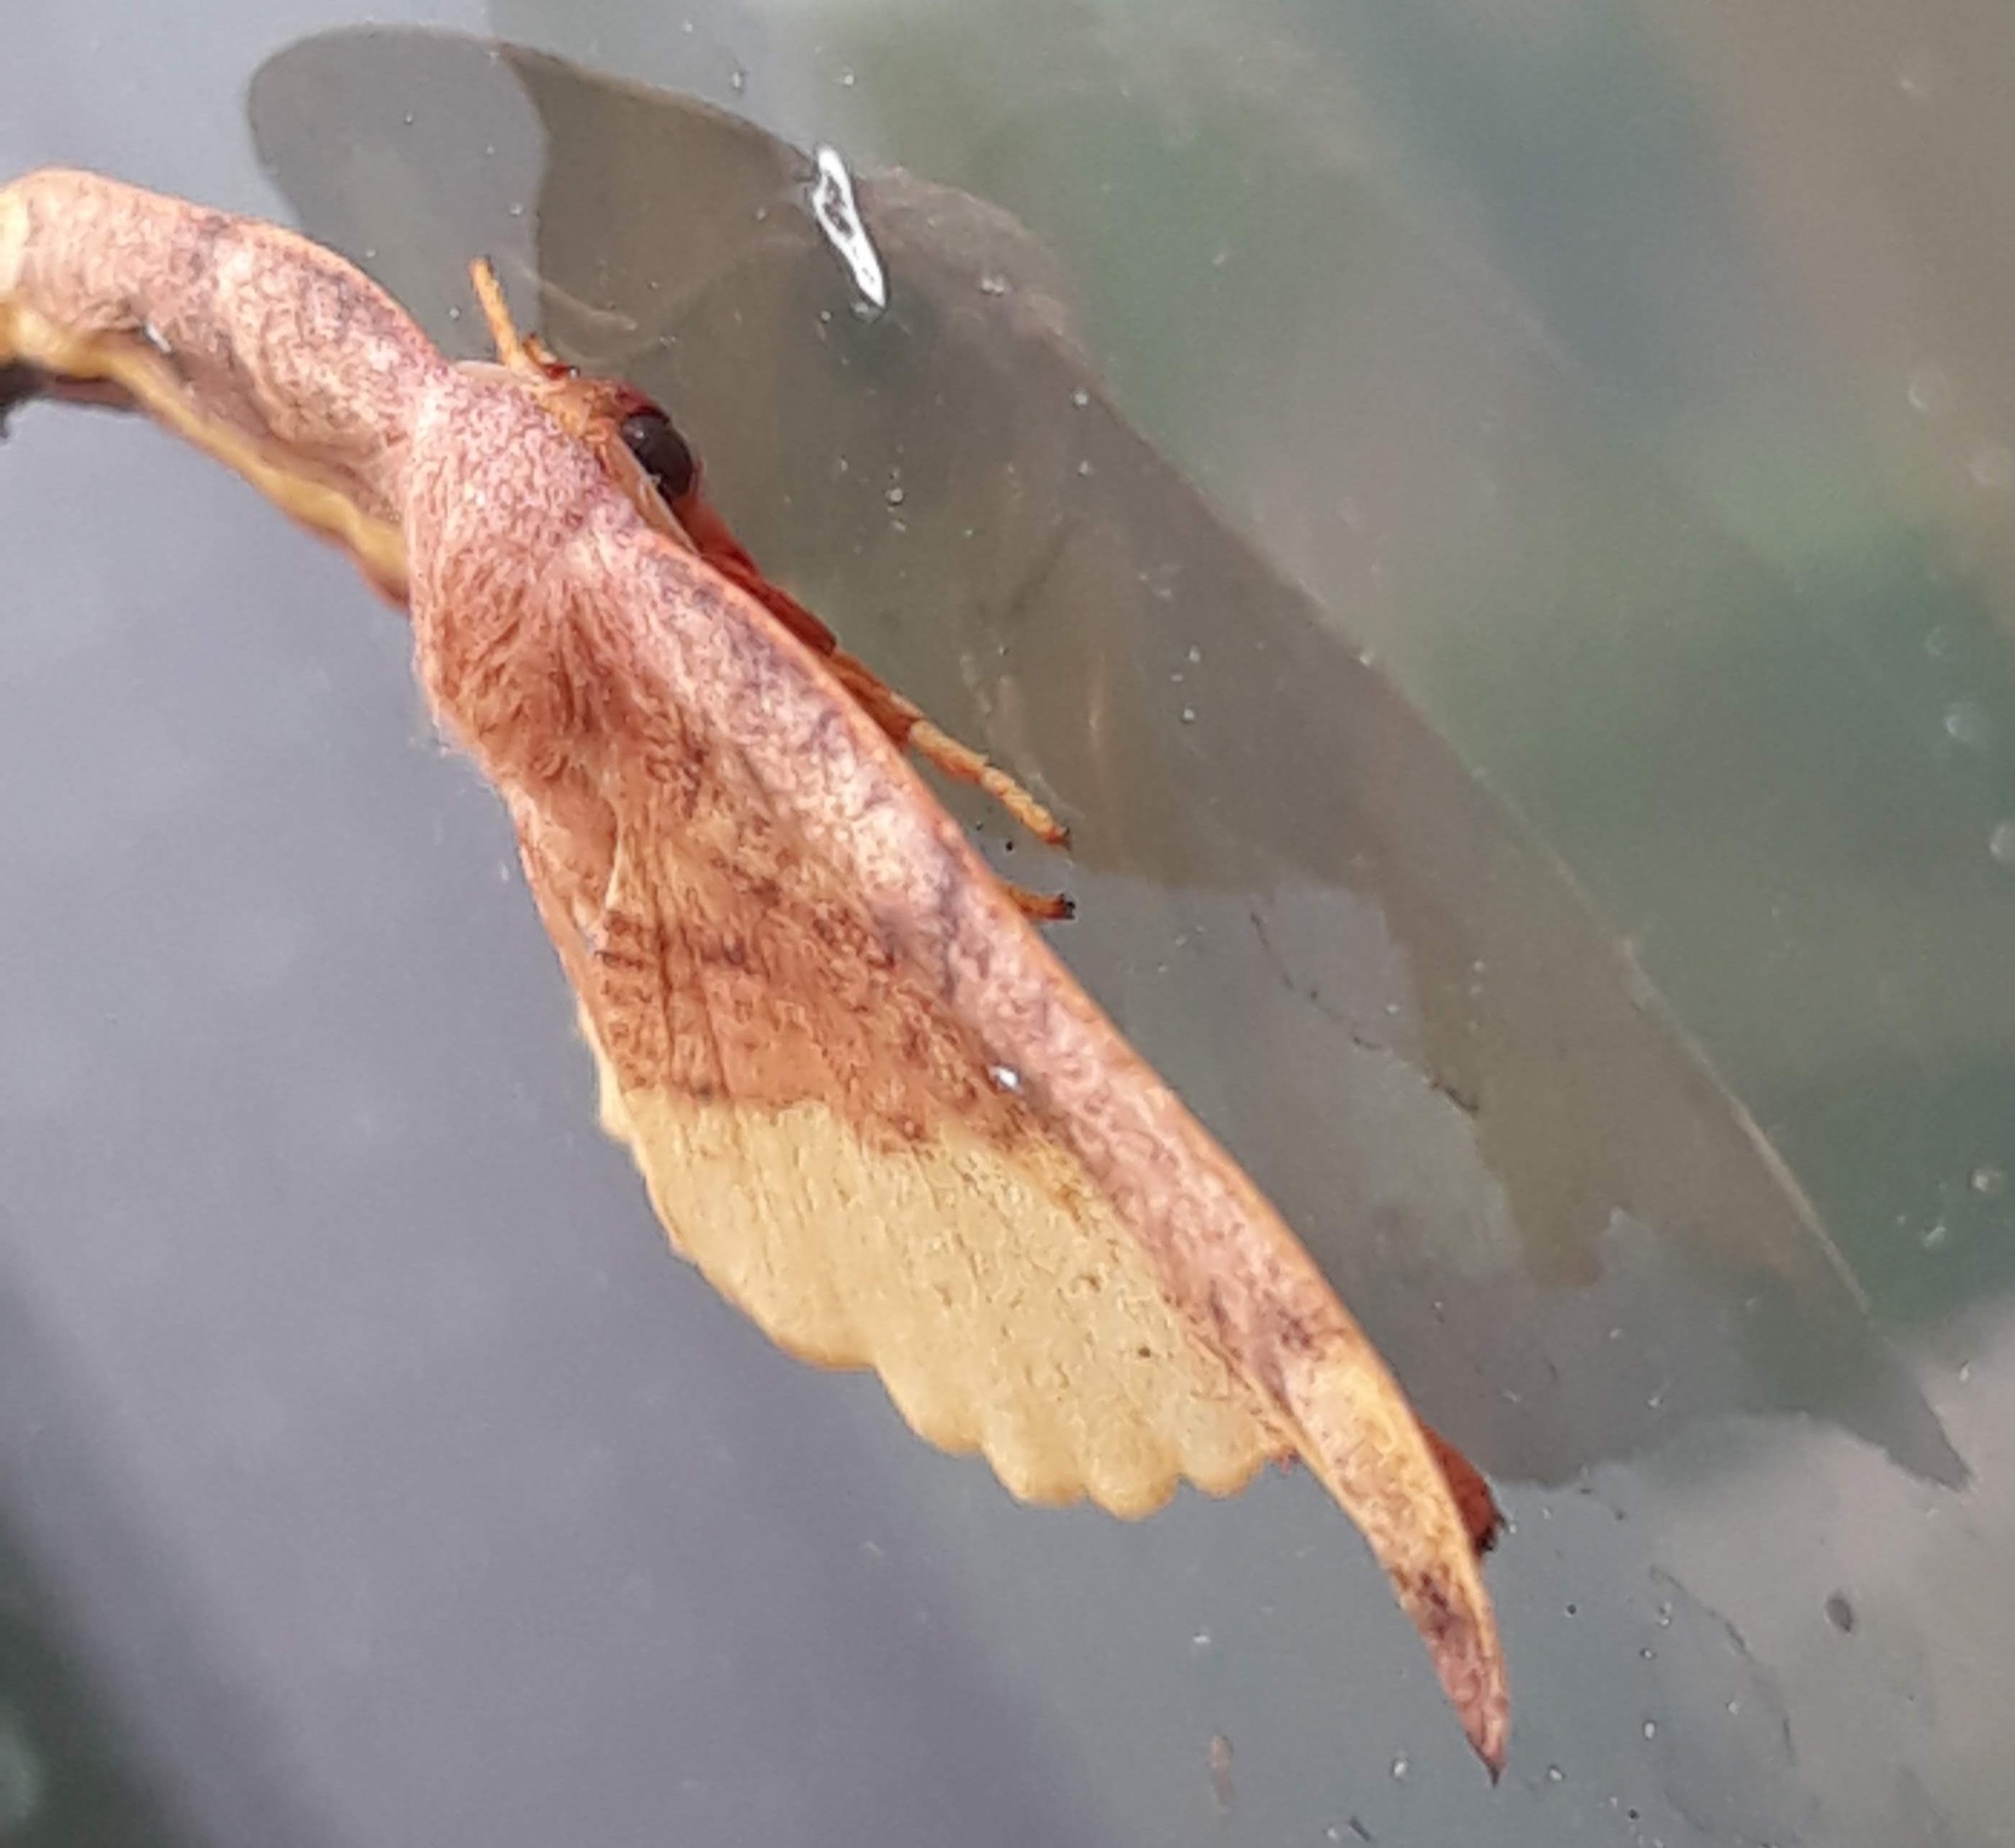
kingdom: Animalia
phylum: Arthropoda
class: Insecta
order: Lepidoptera
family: Drepanidae
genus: Oreta
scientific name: Oreta rosea
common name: Rose hooktip
